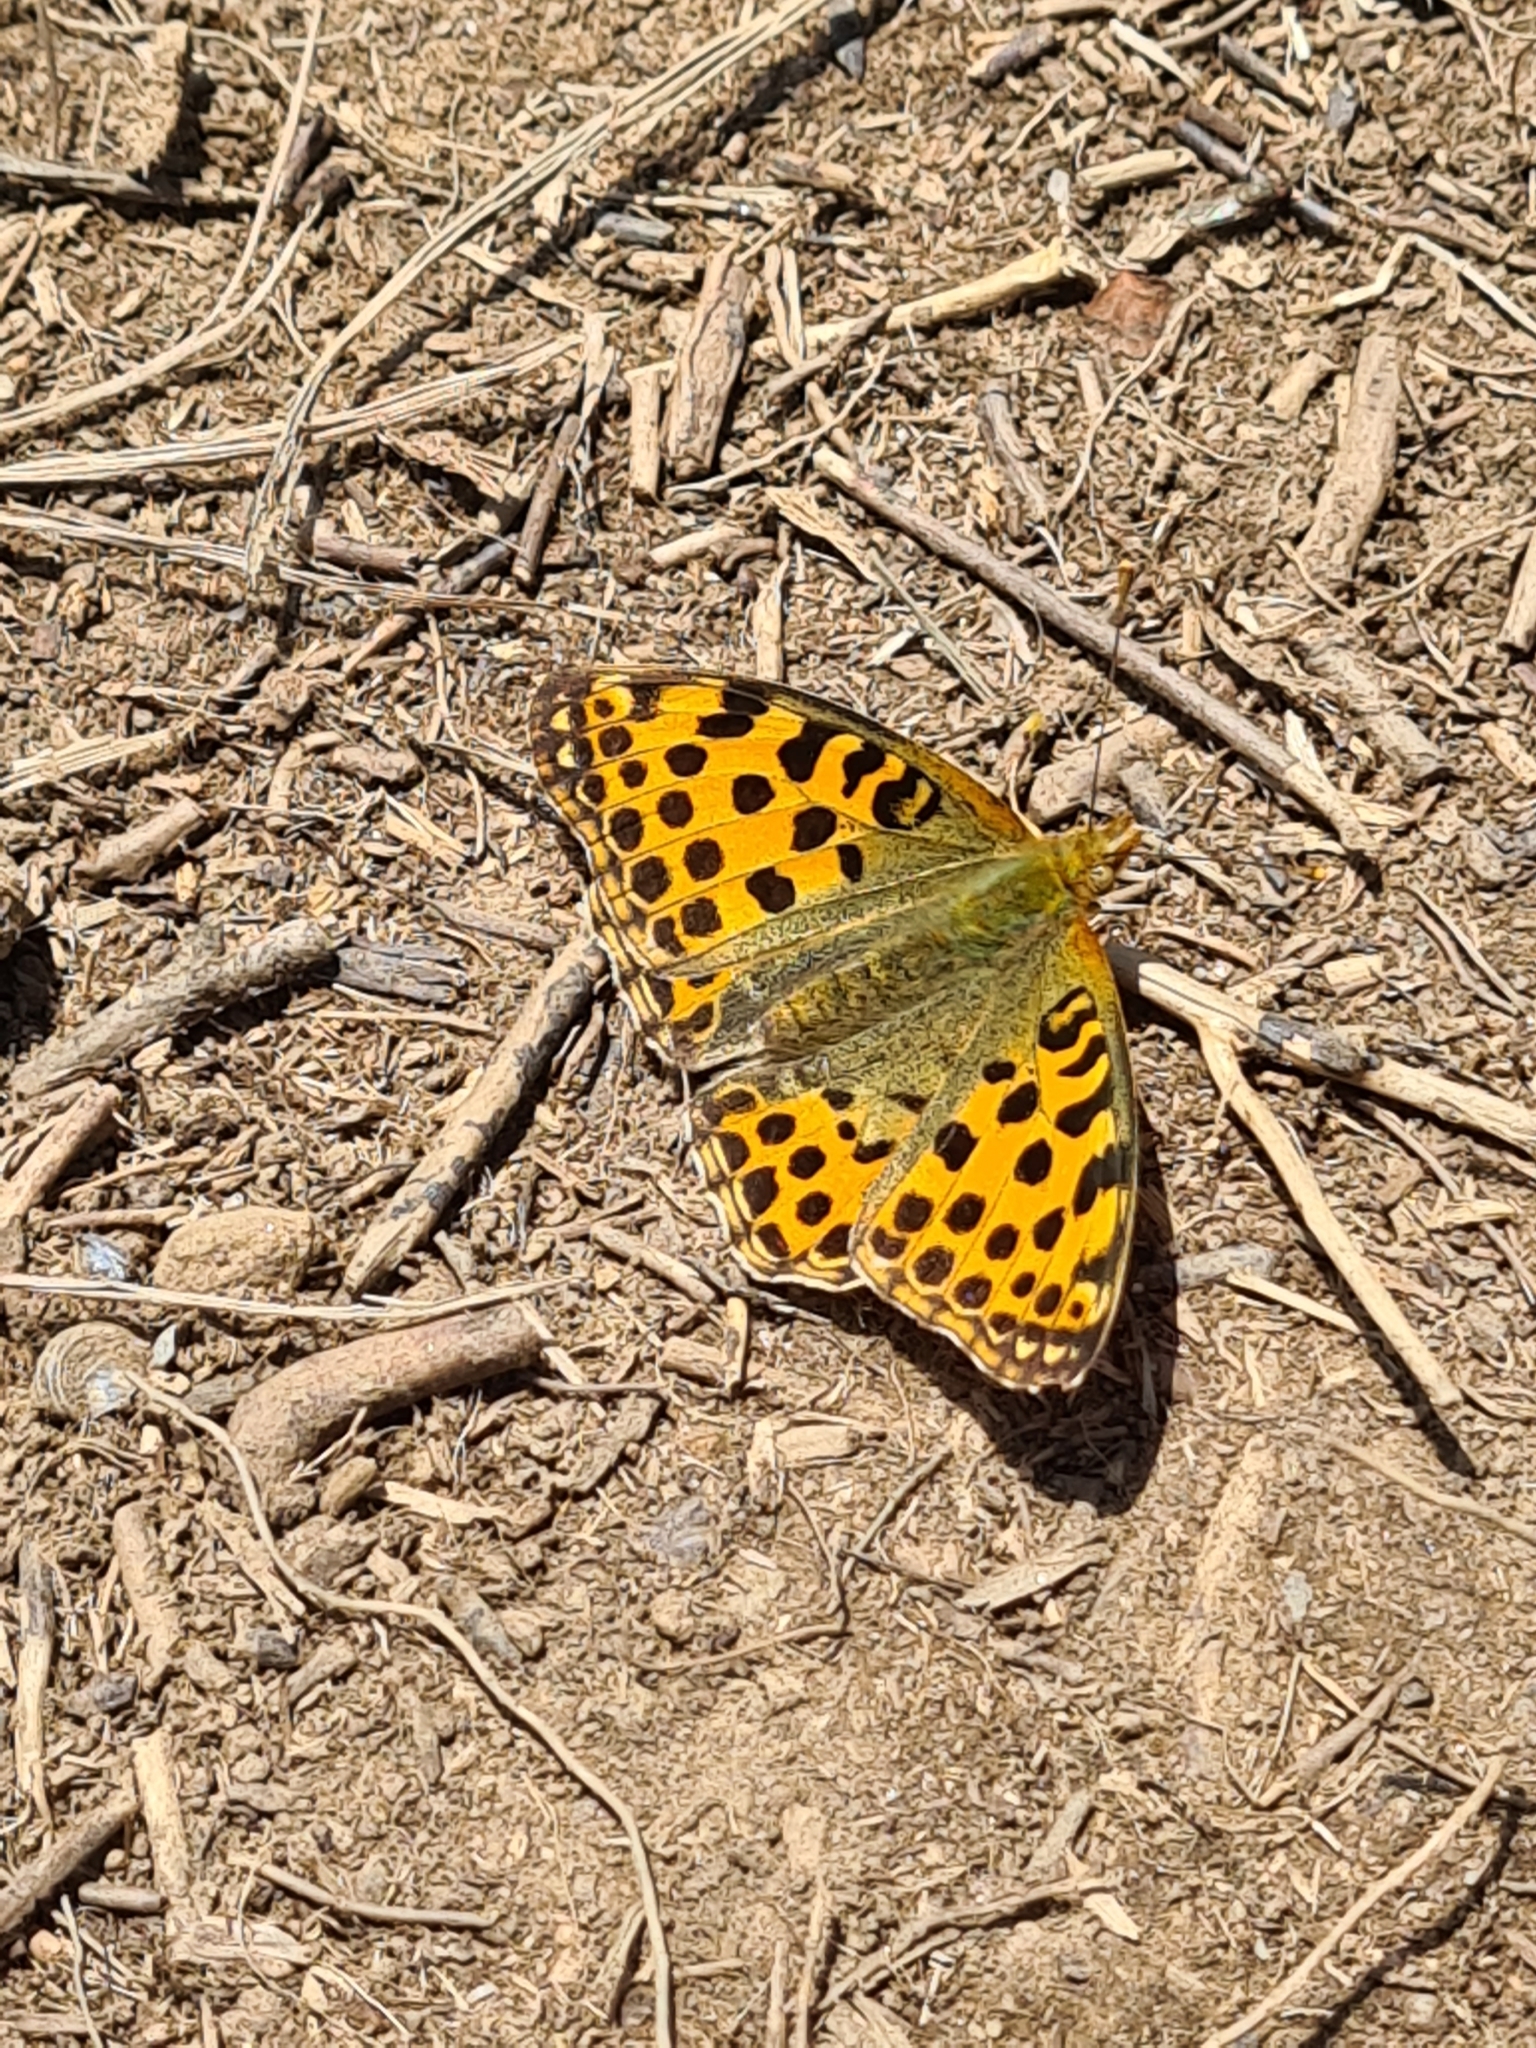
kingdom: Animalia
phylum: Arthropoda
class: Insecta
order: Lepidoptera
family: Nymphalidae
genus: Issoria
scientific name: Issoria lathonia
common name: Queen of spain fritillary
